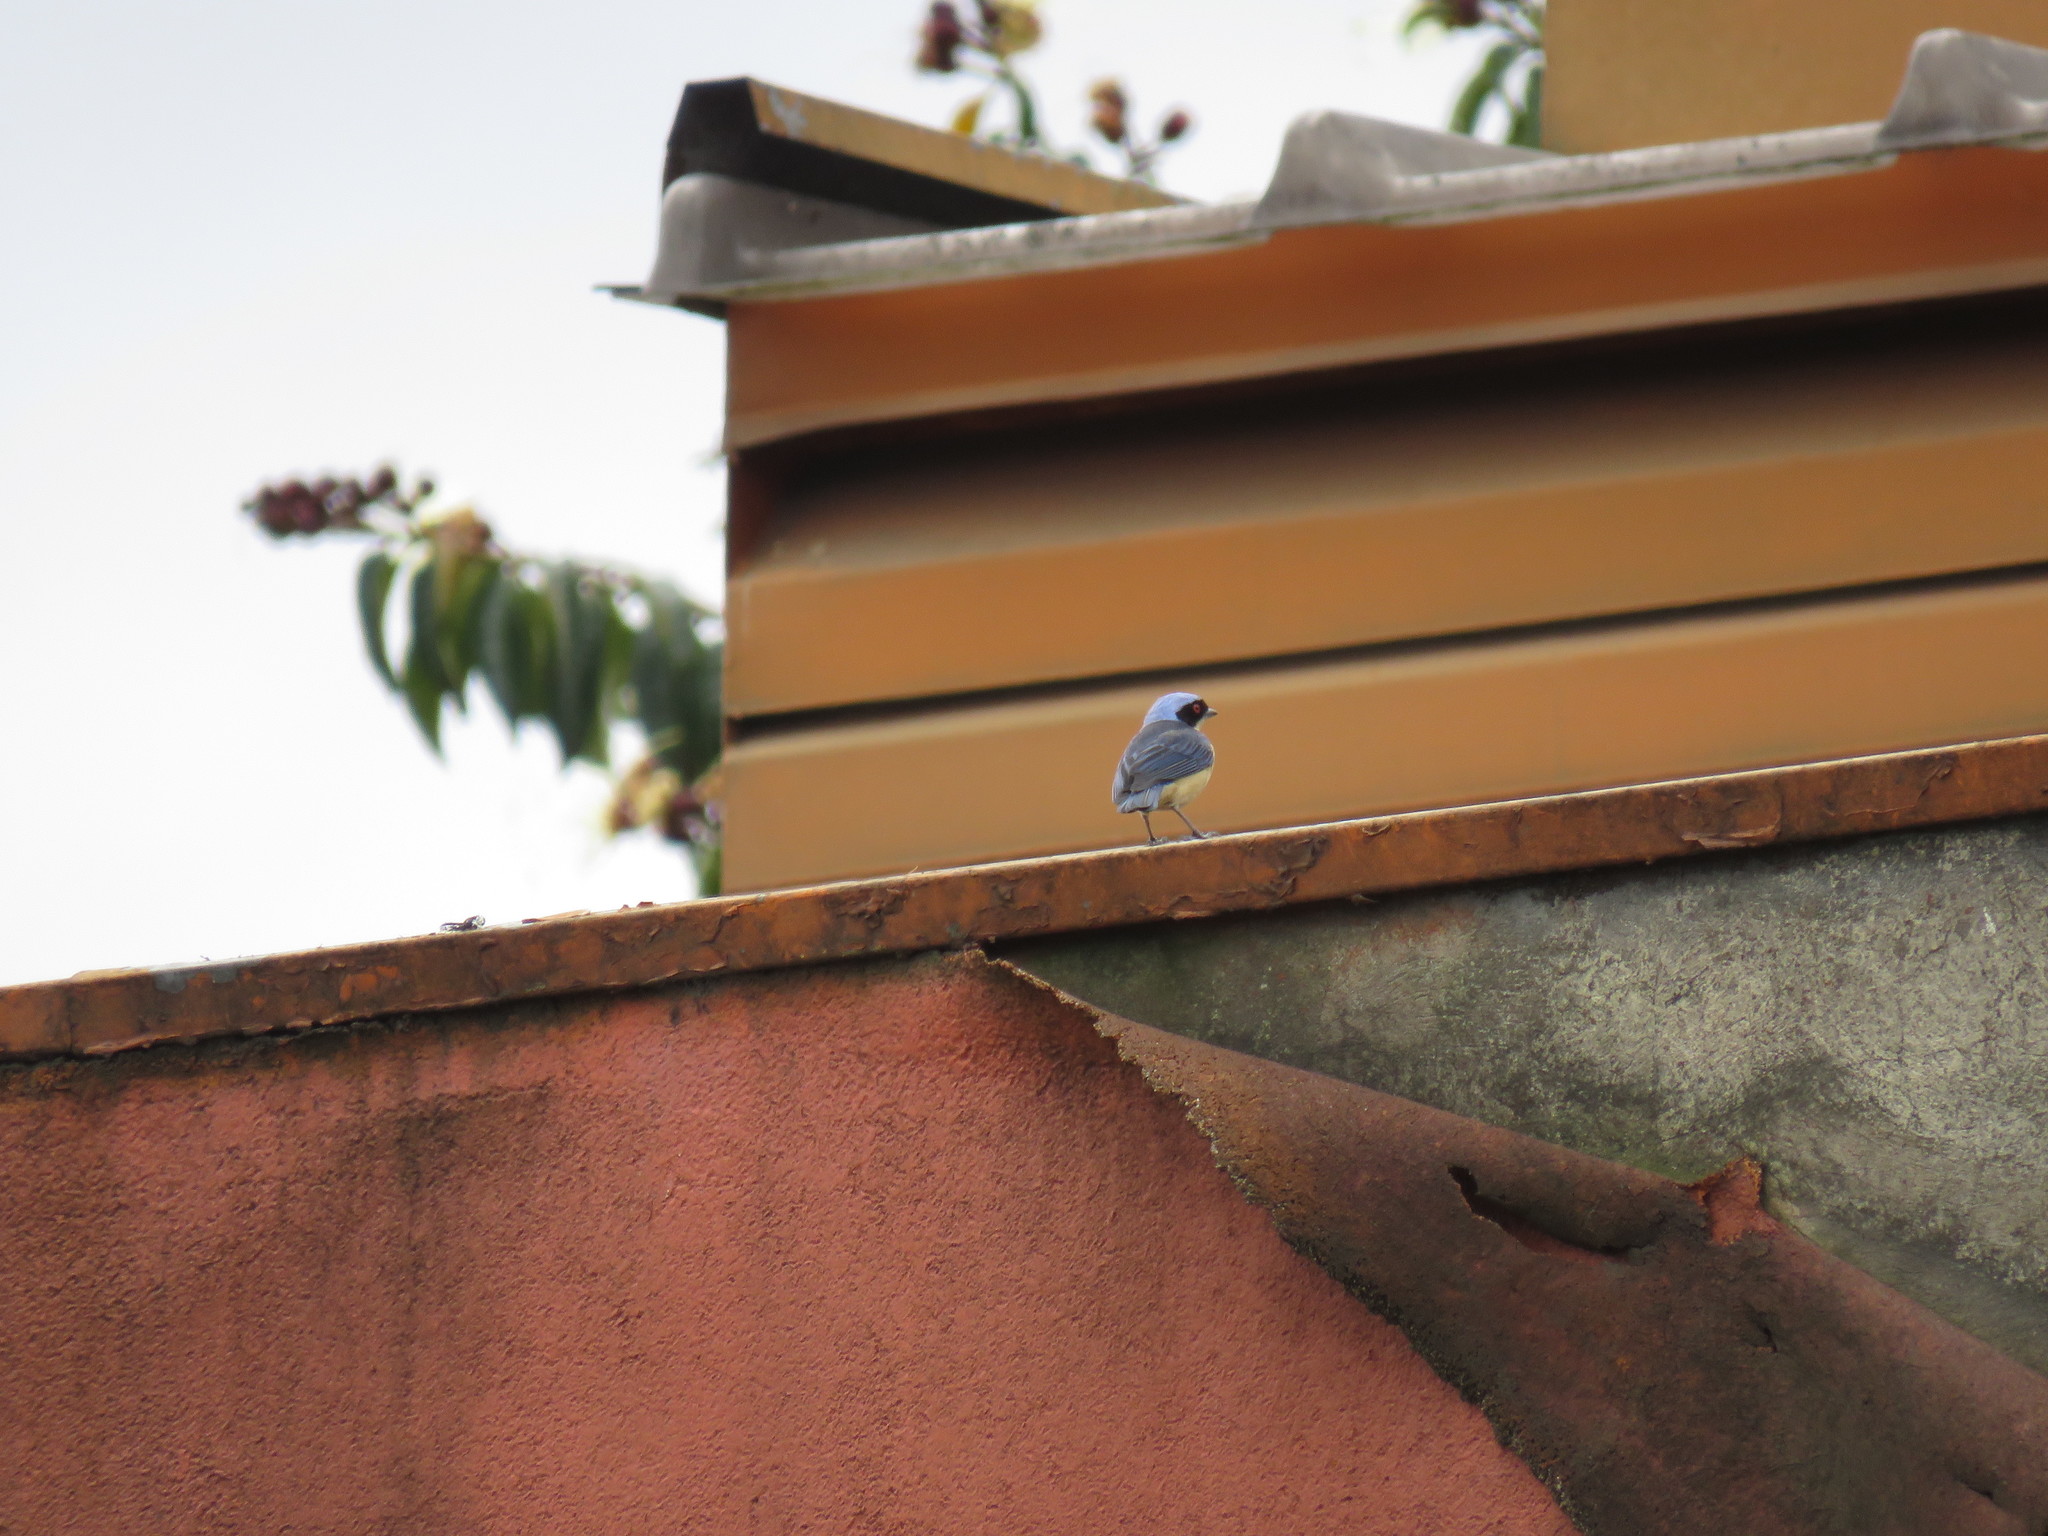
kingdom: Animalia
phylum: Chordata
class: Aves
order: Passeriformes
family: Thraupidae
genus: Pipraeidea
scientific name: Pipraeidea melanonota
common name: Fawn-breasted tanager
